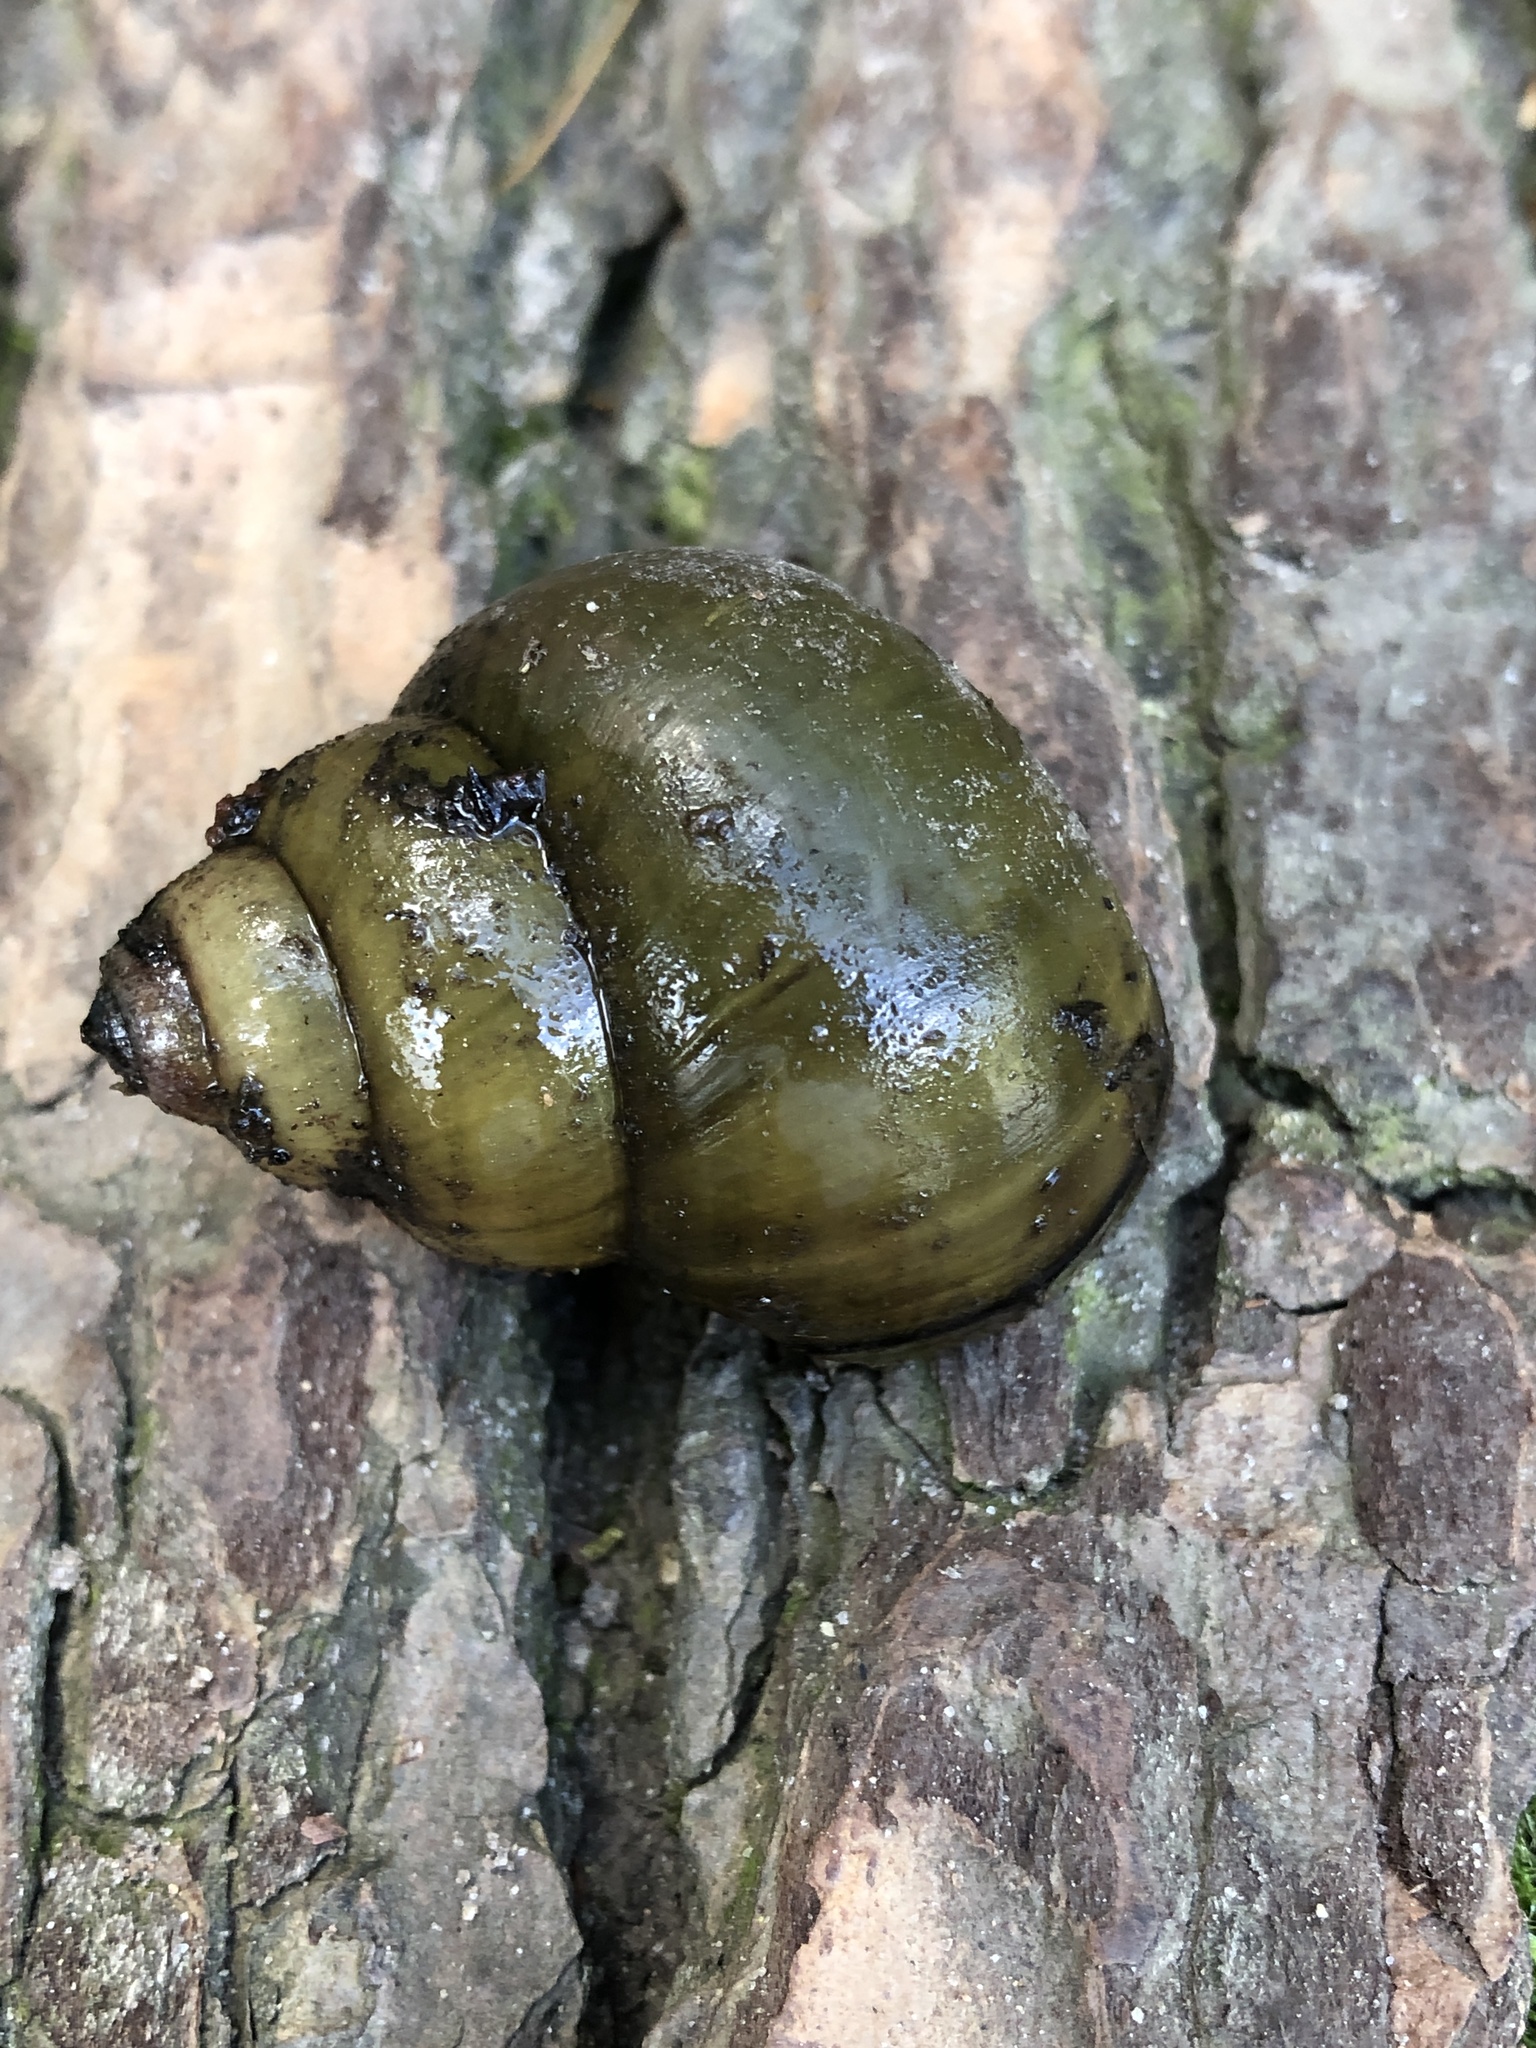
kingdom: Animalia
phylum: Mollusca
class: Gastropoda
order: Architaenioglossa
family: Viviparidae
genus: Cipangopaludina
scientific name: Cipangopaludina chinensis
